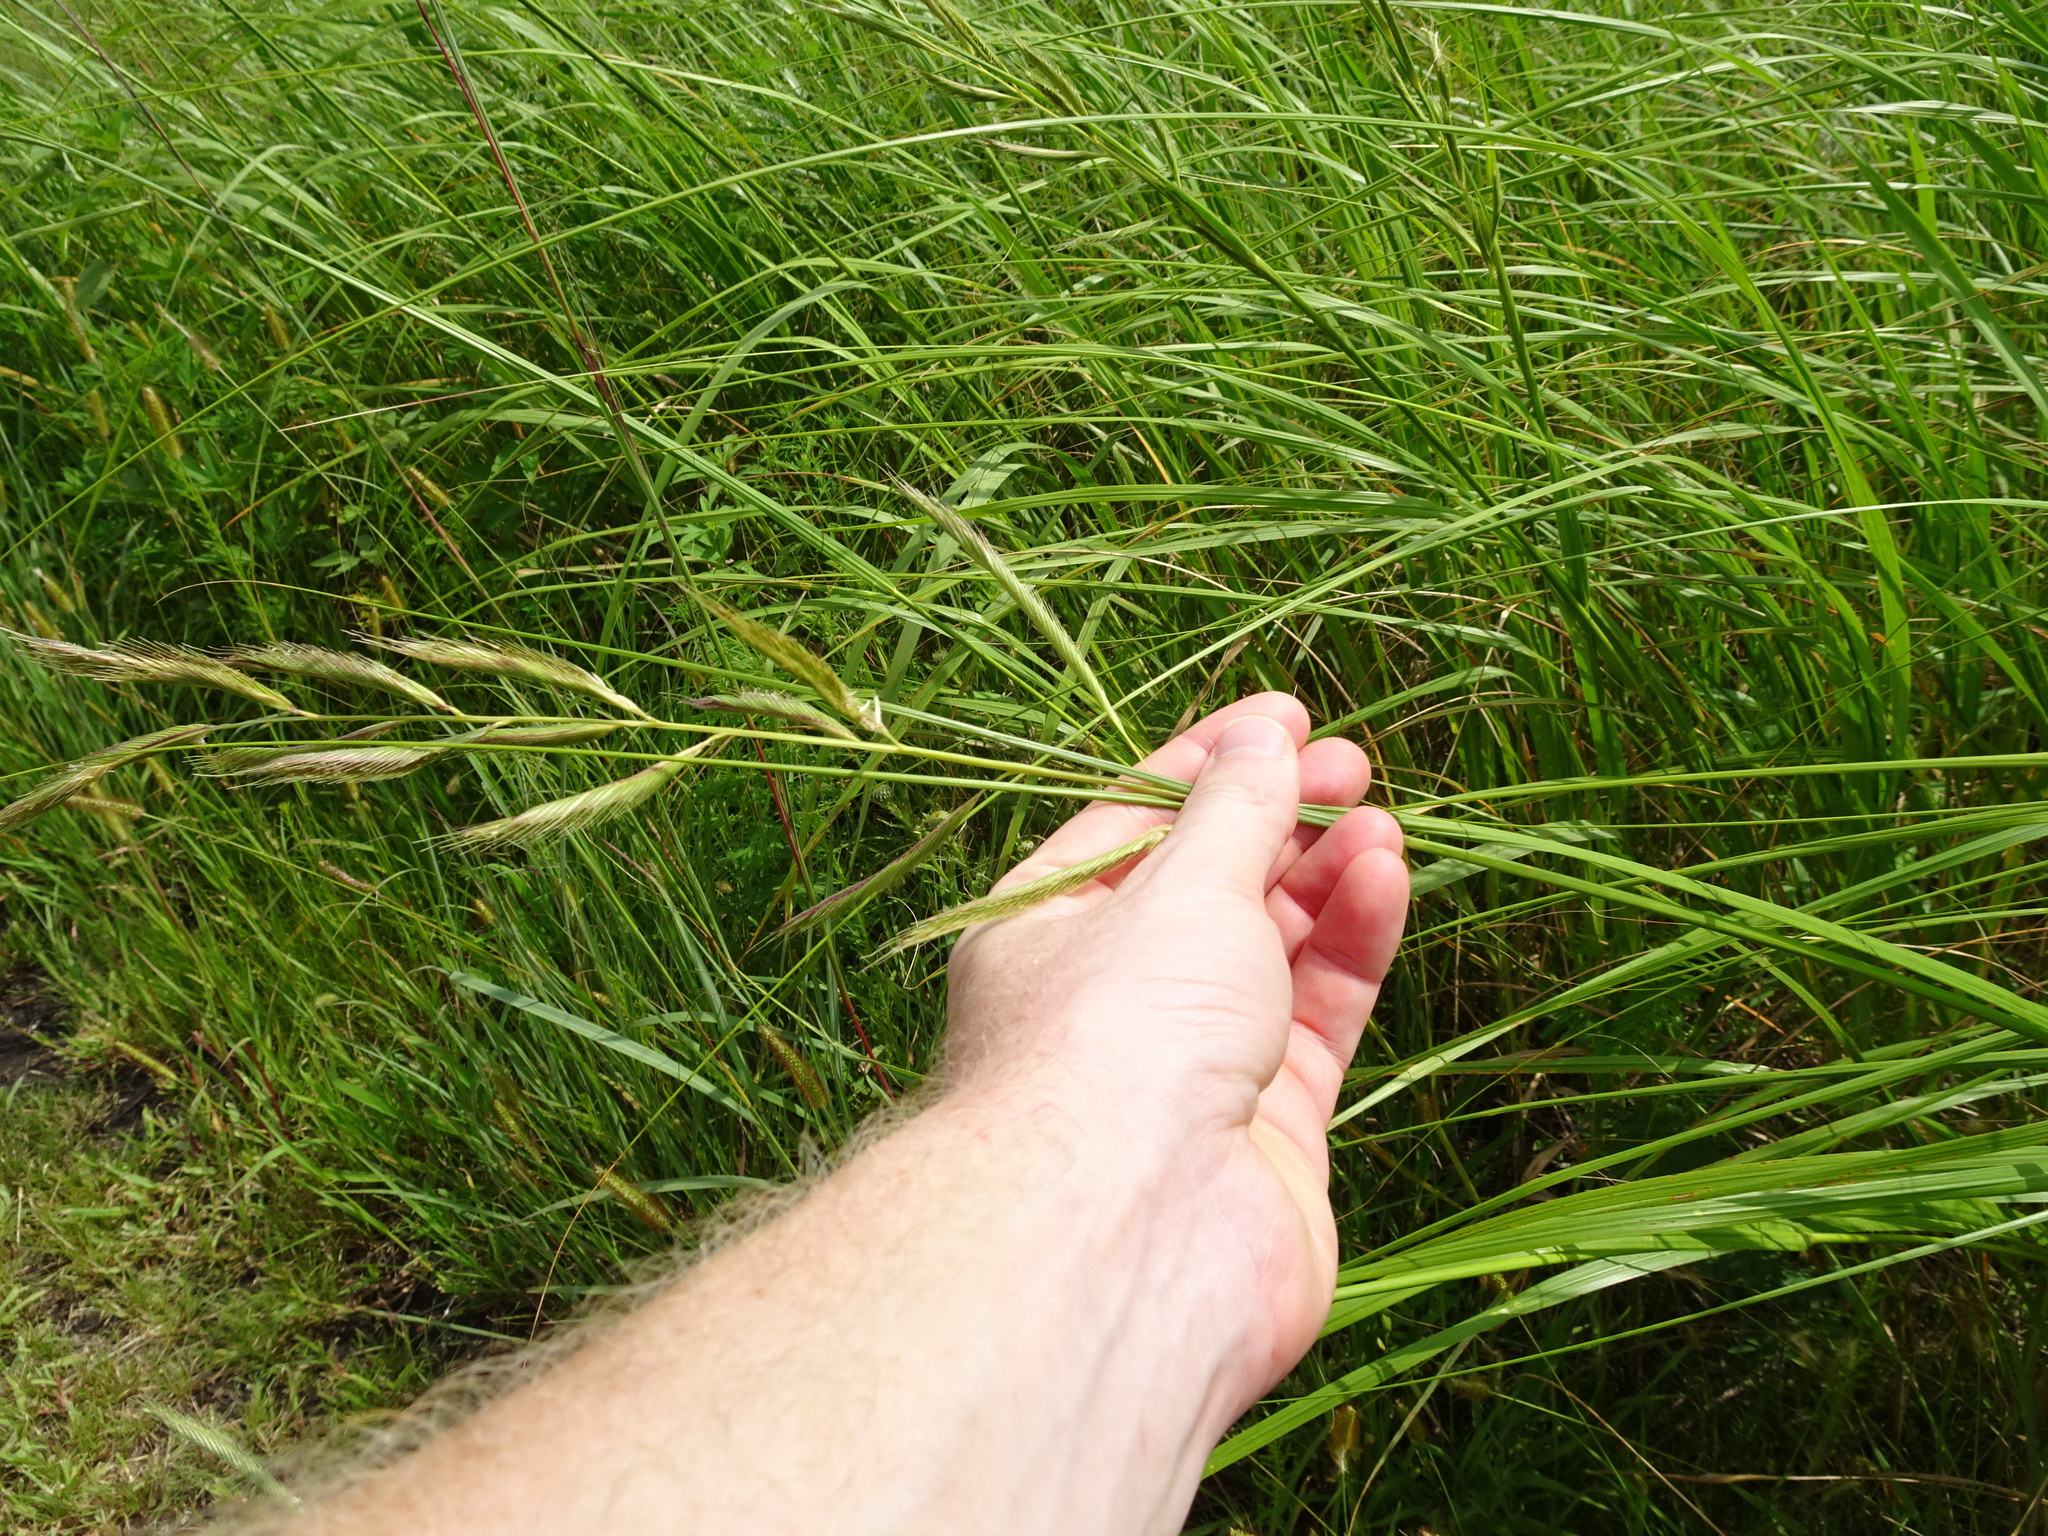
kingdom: Plantae
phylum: Tracheophyta
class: Liliopsida
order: Poales
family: Poaceae
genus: Sporobolus
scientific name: Sporobolus michauxianus
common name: Freshwater cordgrass
